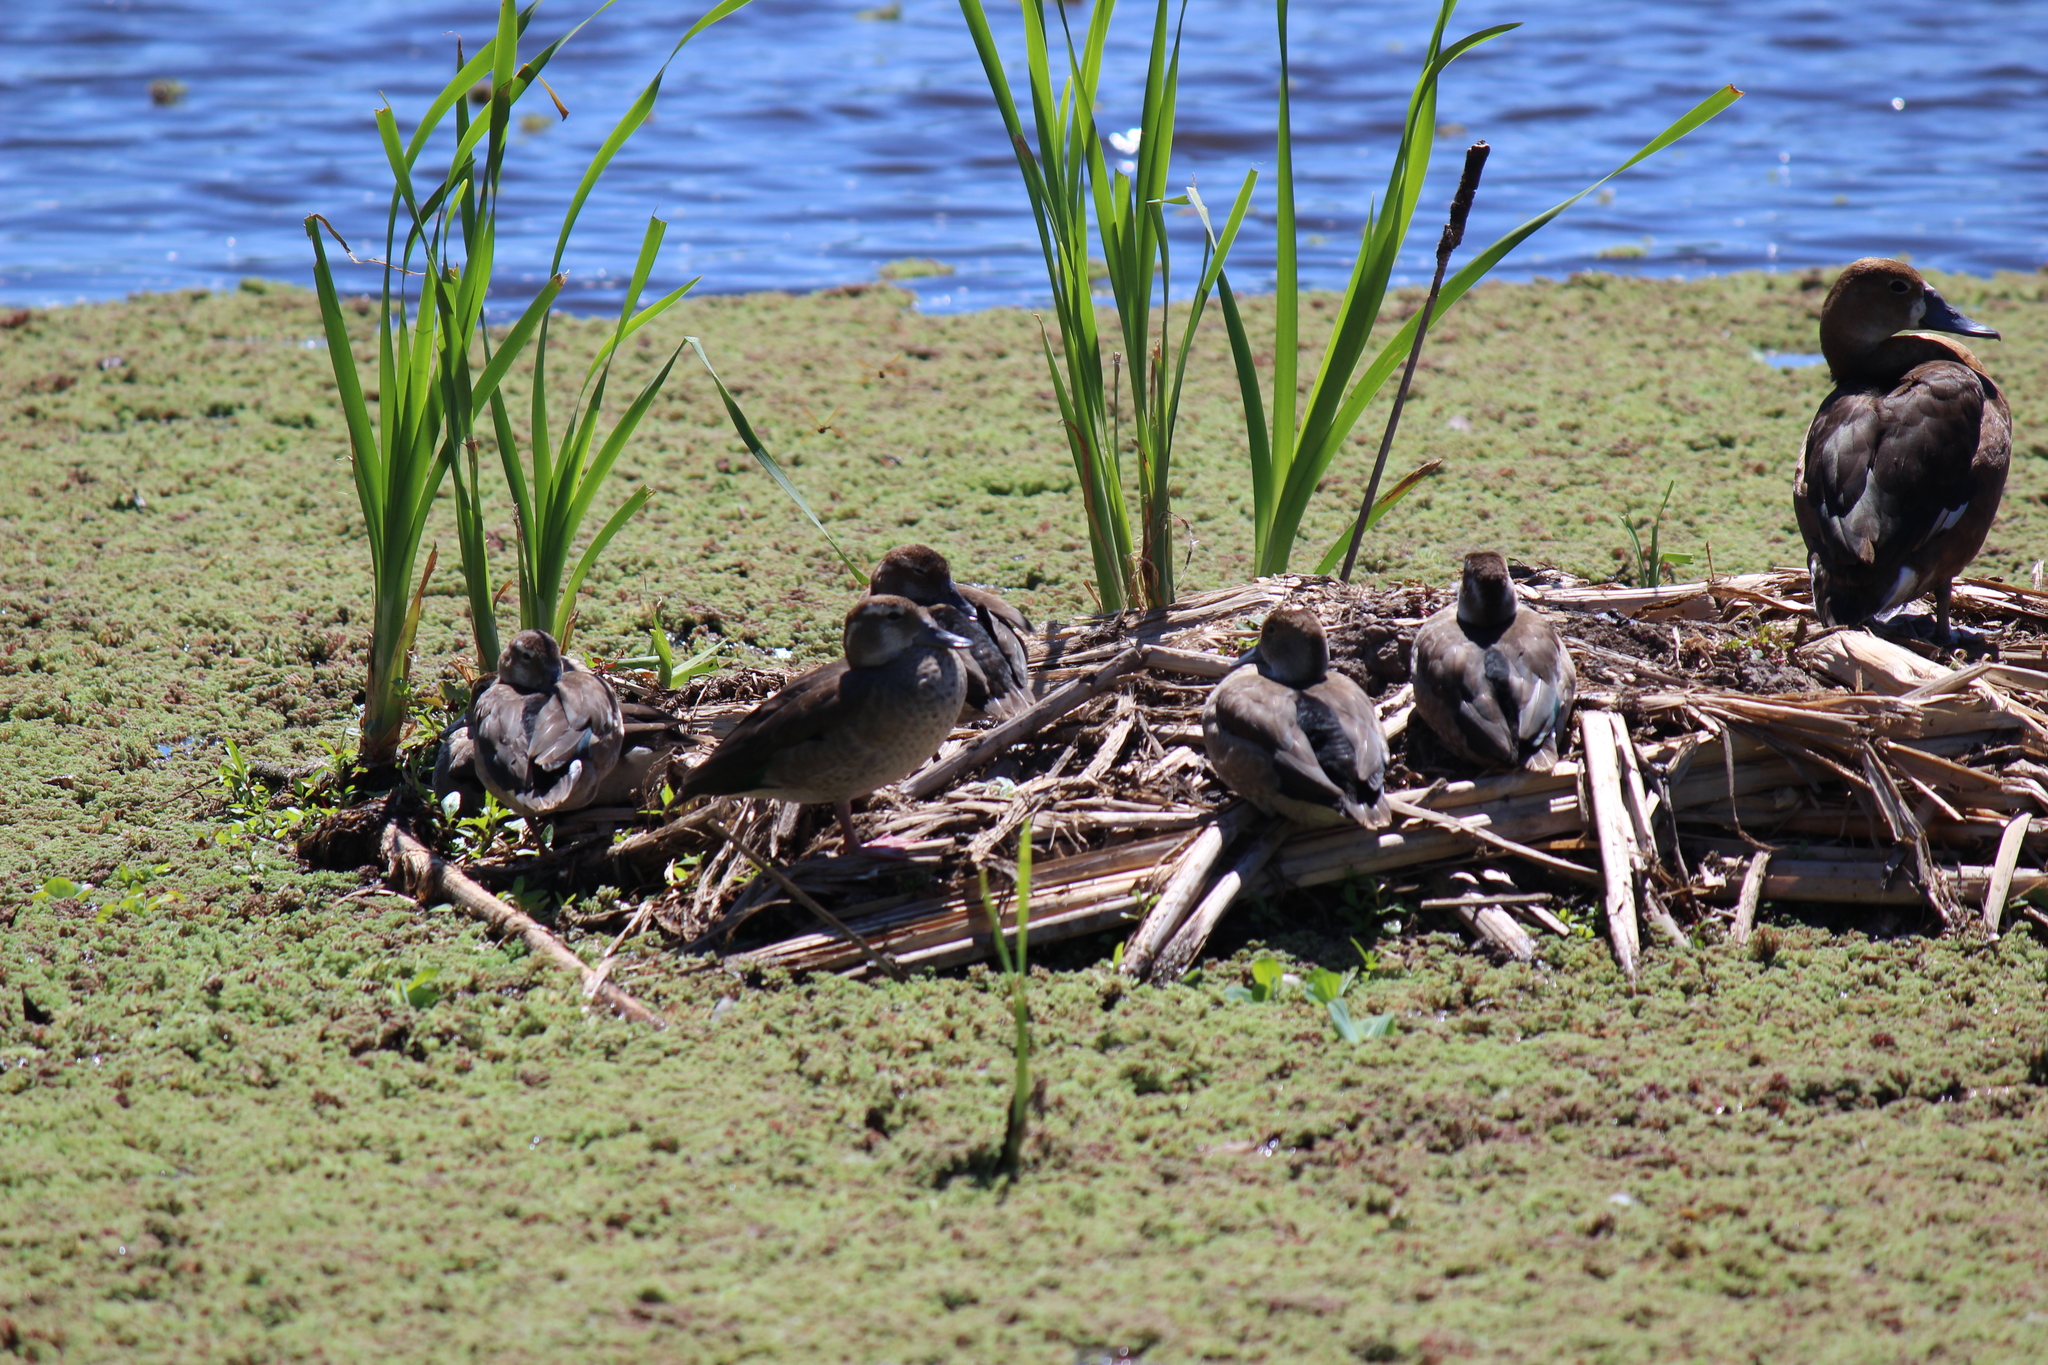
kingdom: Animalia
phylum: Chordata
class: Aves
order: Anseriformes
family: Anatidae
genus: Netta
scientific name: Netta peposaca
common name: Rosy-billed pochard
